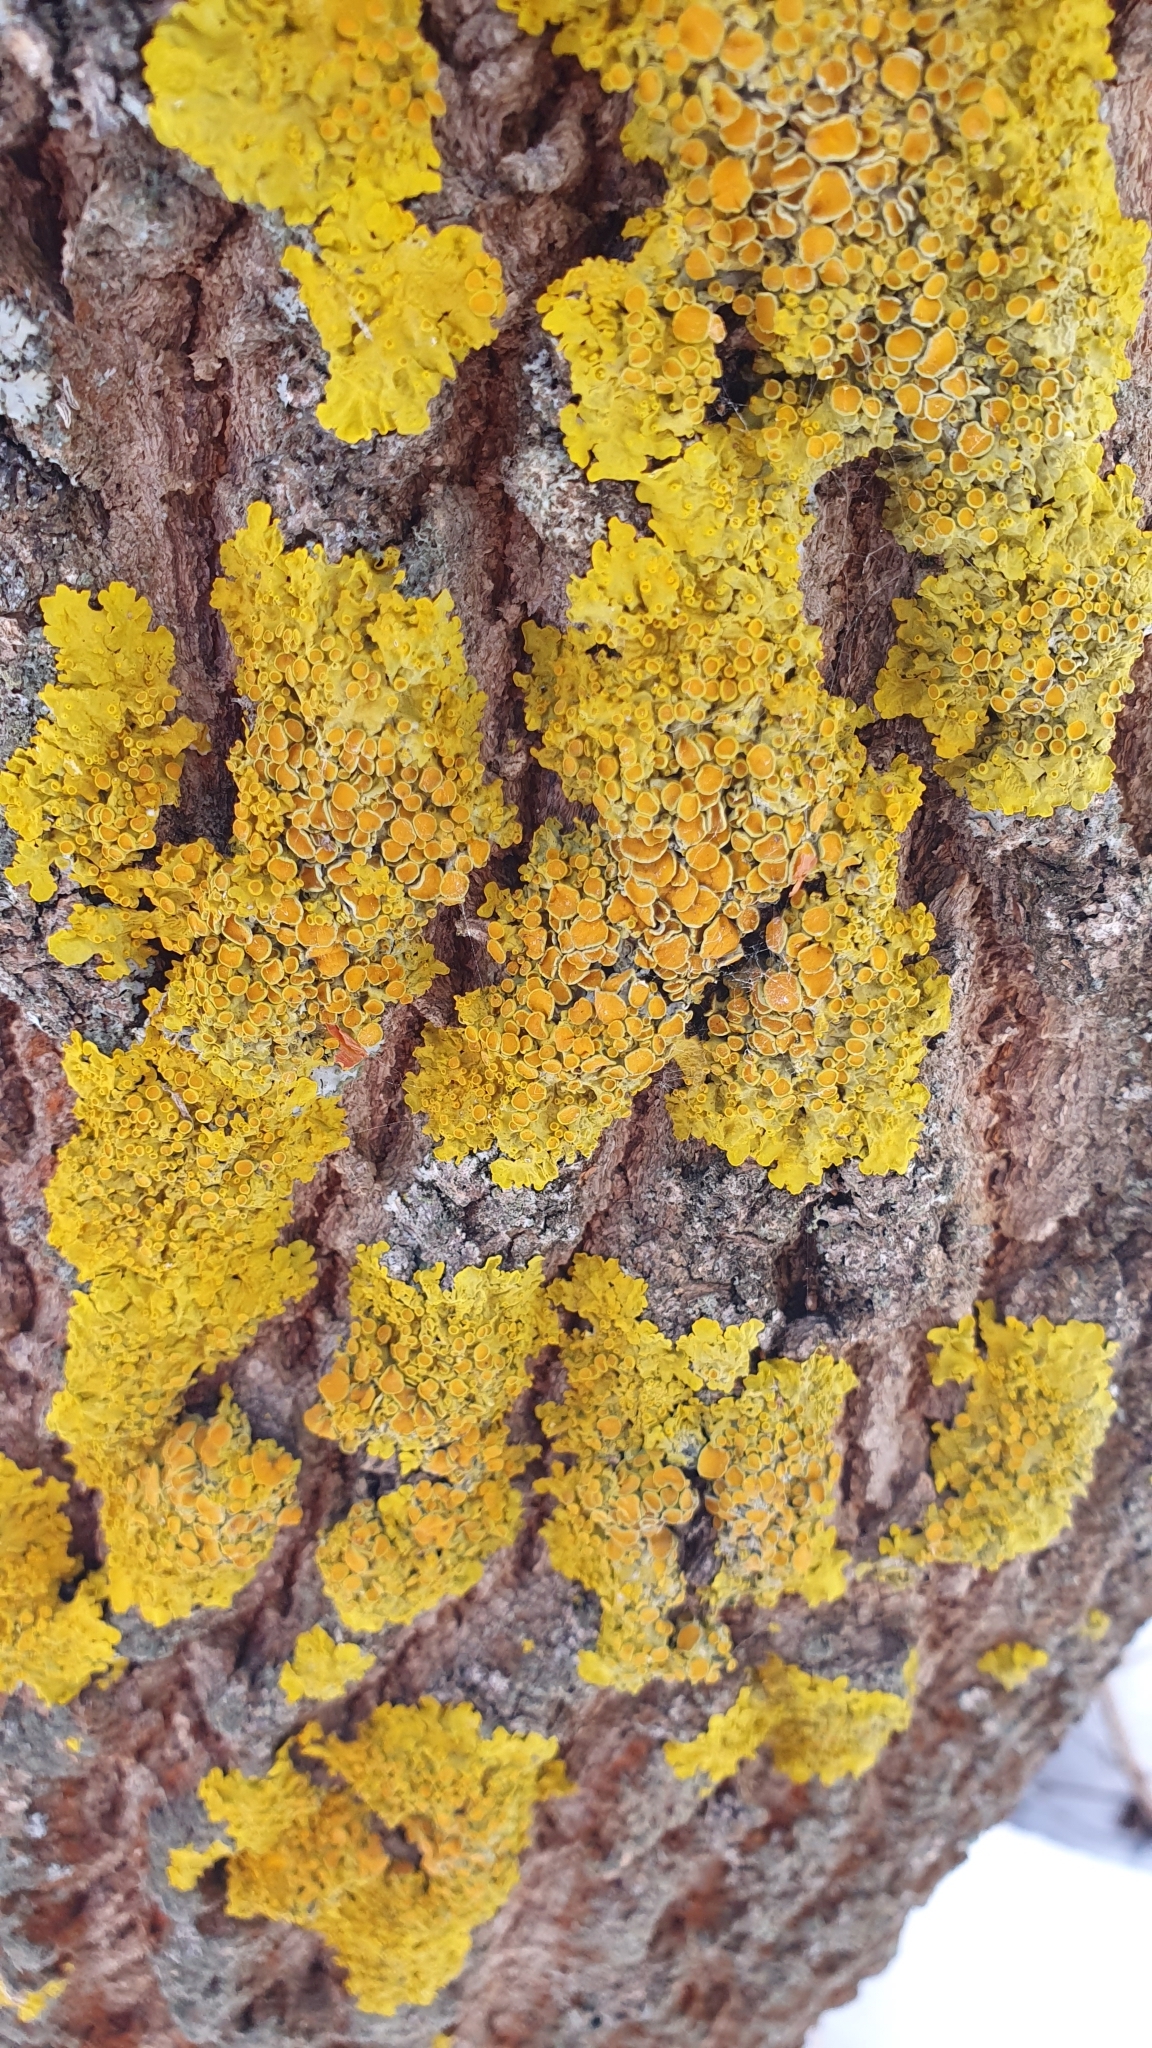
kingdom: Fungi
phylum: Ascomycota
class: Lecanoromycetes
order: Teloschistales
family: Teloschistaceae
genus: Xanthoria
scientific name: Xanthoria parietina
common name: Common orange lichen
